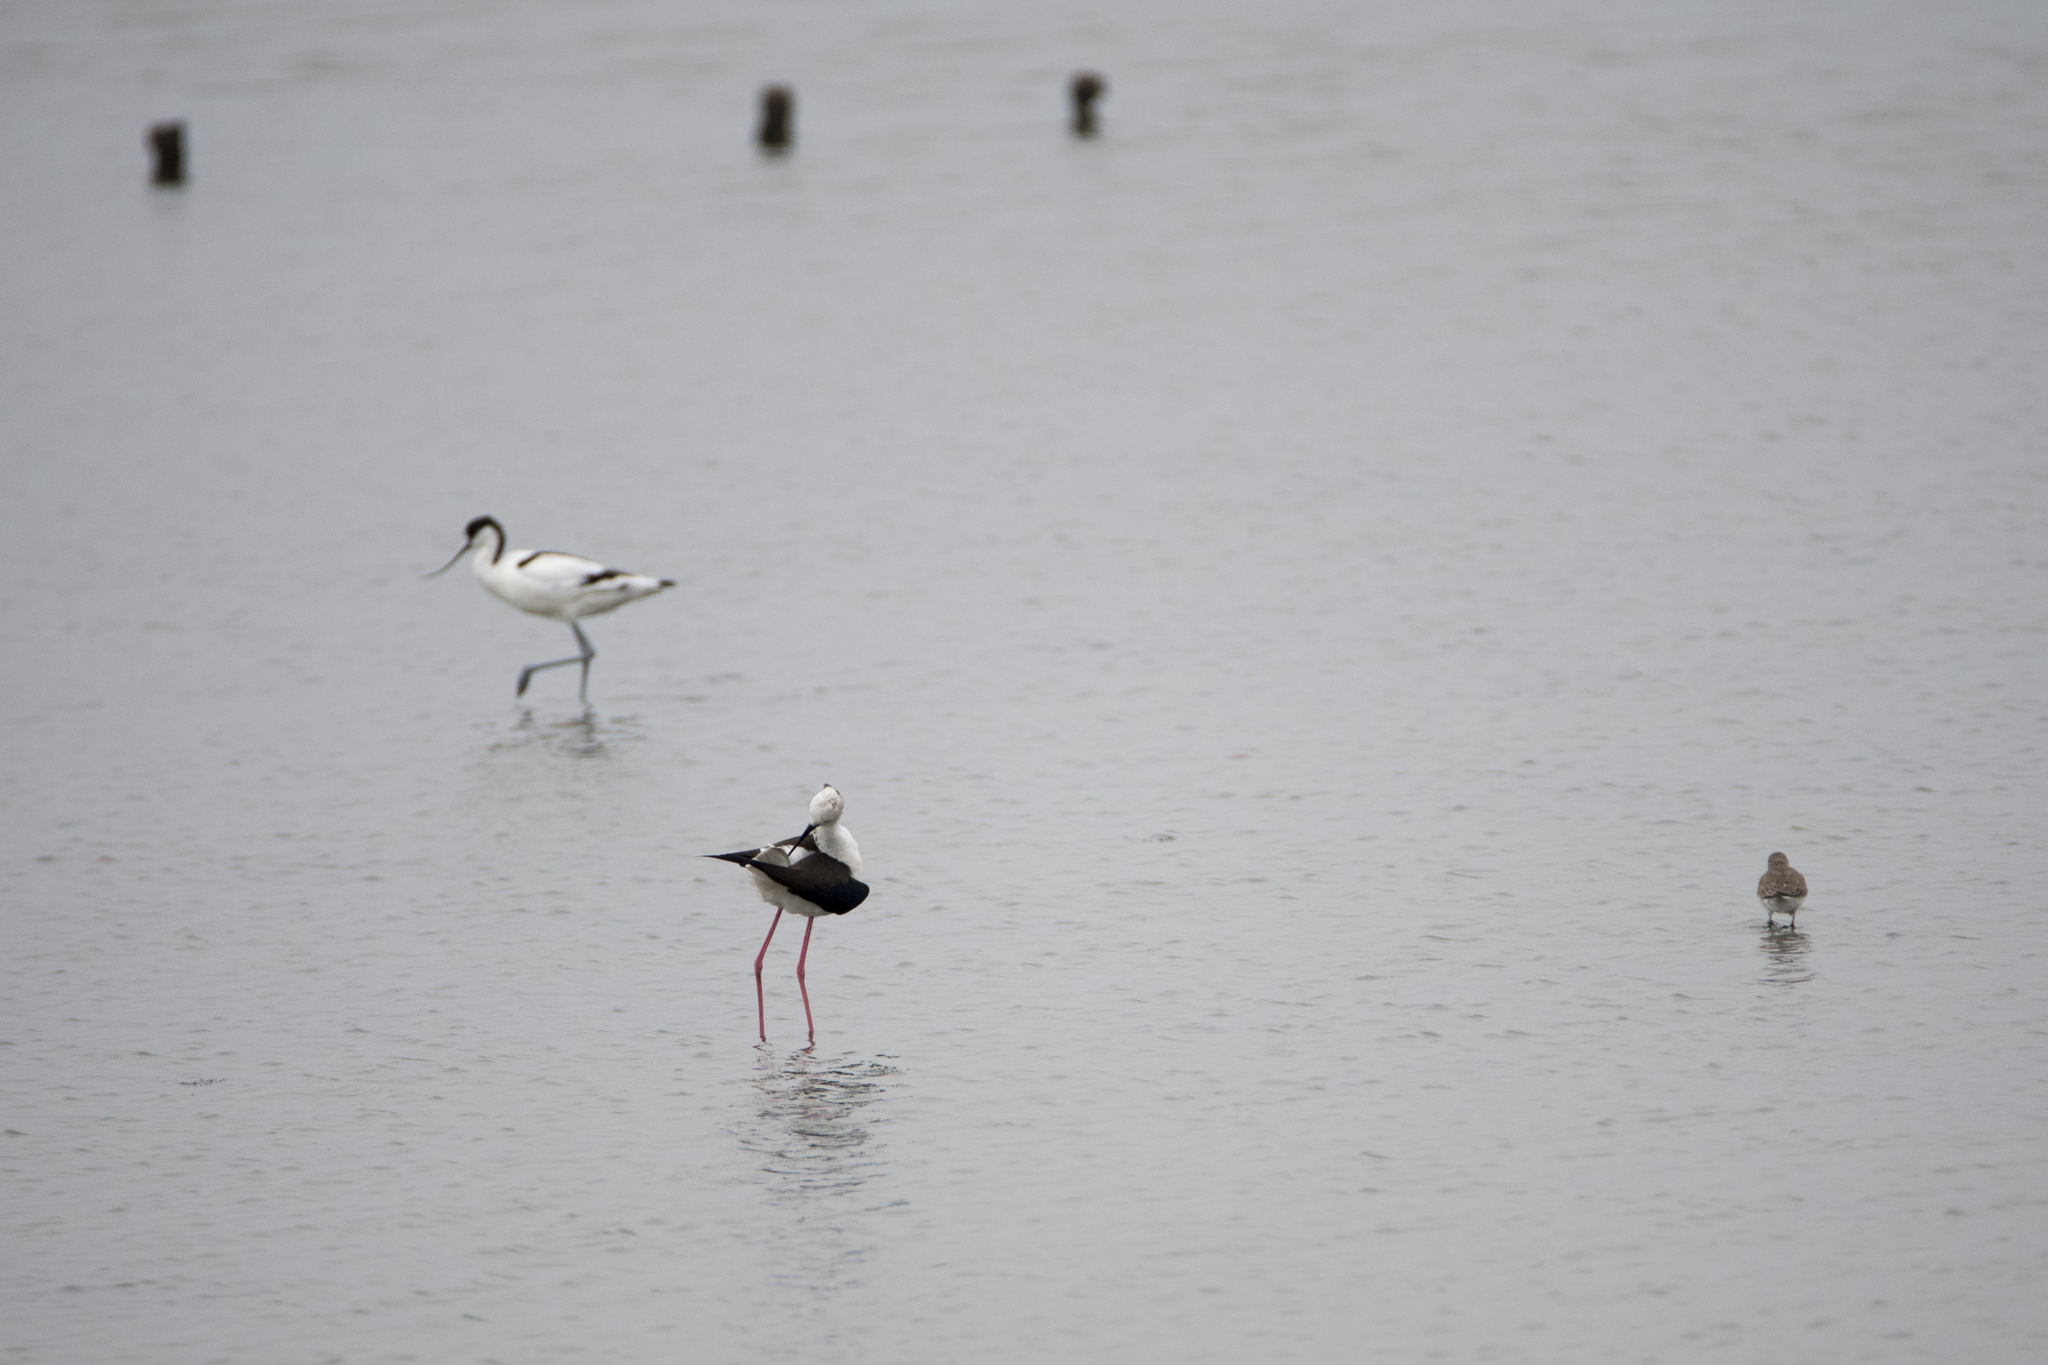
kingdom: Animalia
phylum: Chordata
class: Aves
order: Charadriiformes
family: Recurvirostridae
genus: Himantopus
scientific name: Himantopus himantopus
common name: Black-winged stilt
